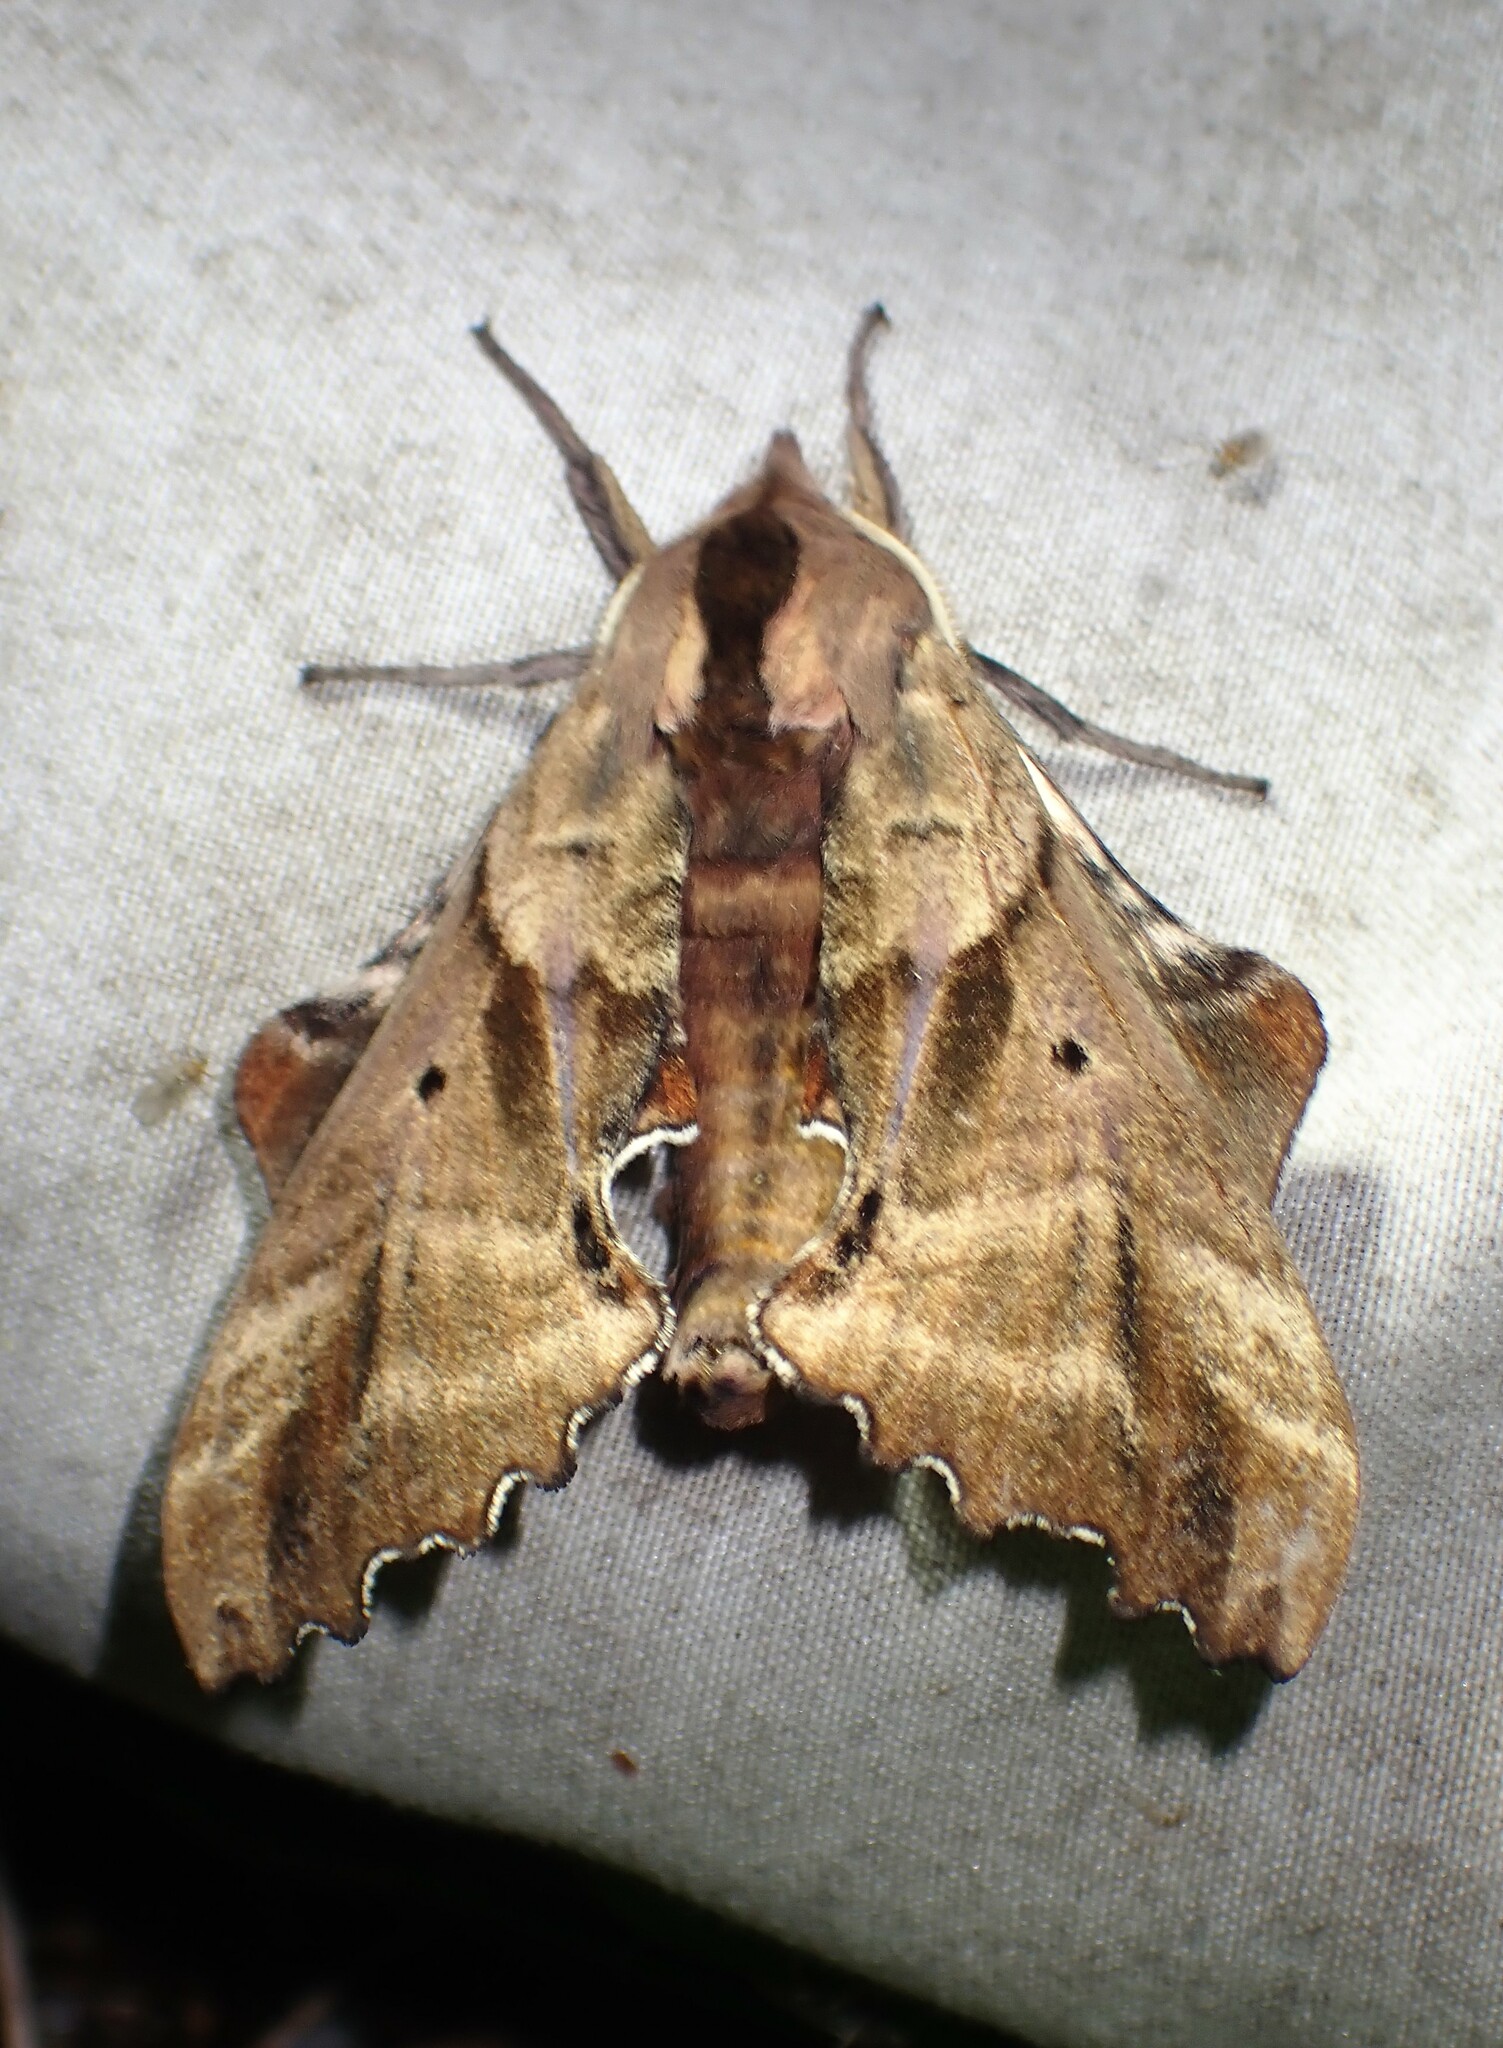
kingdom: Animalia
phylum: Arthropoda
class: Insecta
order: Lepidoptera
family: Sphingidae
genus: Paonias
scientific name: Paonias excaecata
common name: Blind-eyed sphinx
